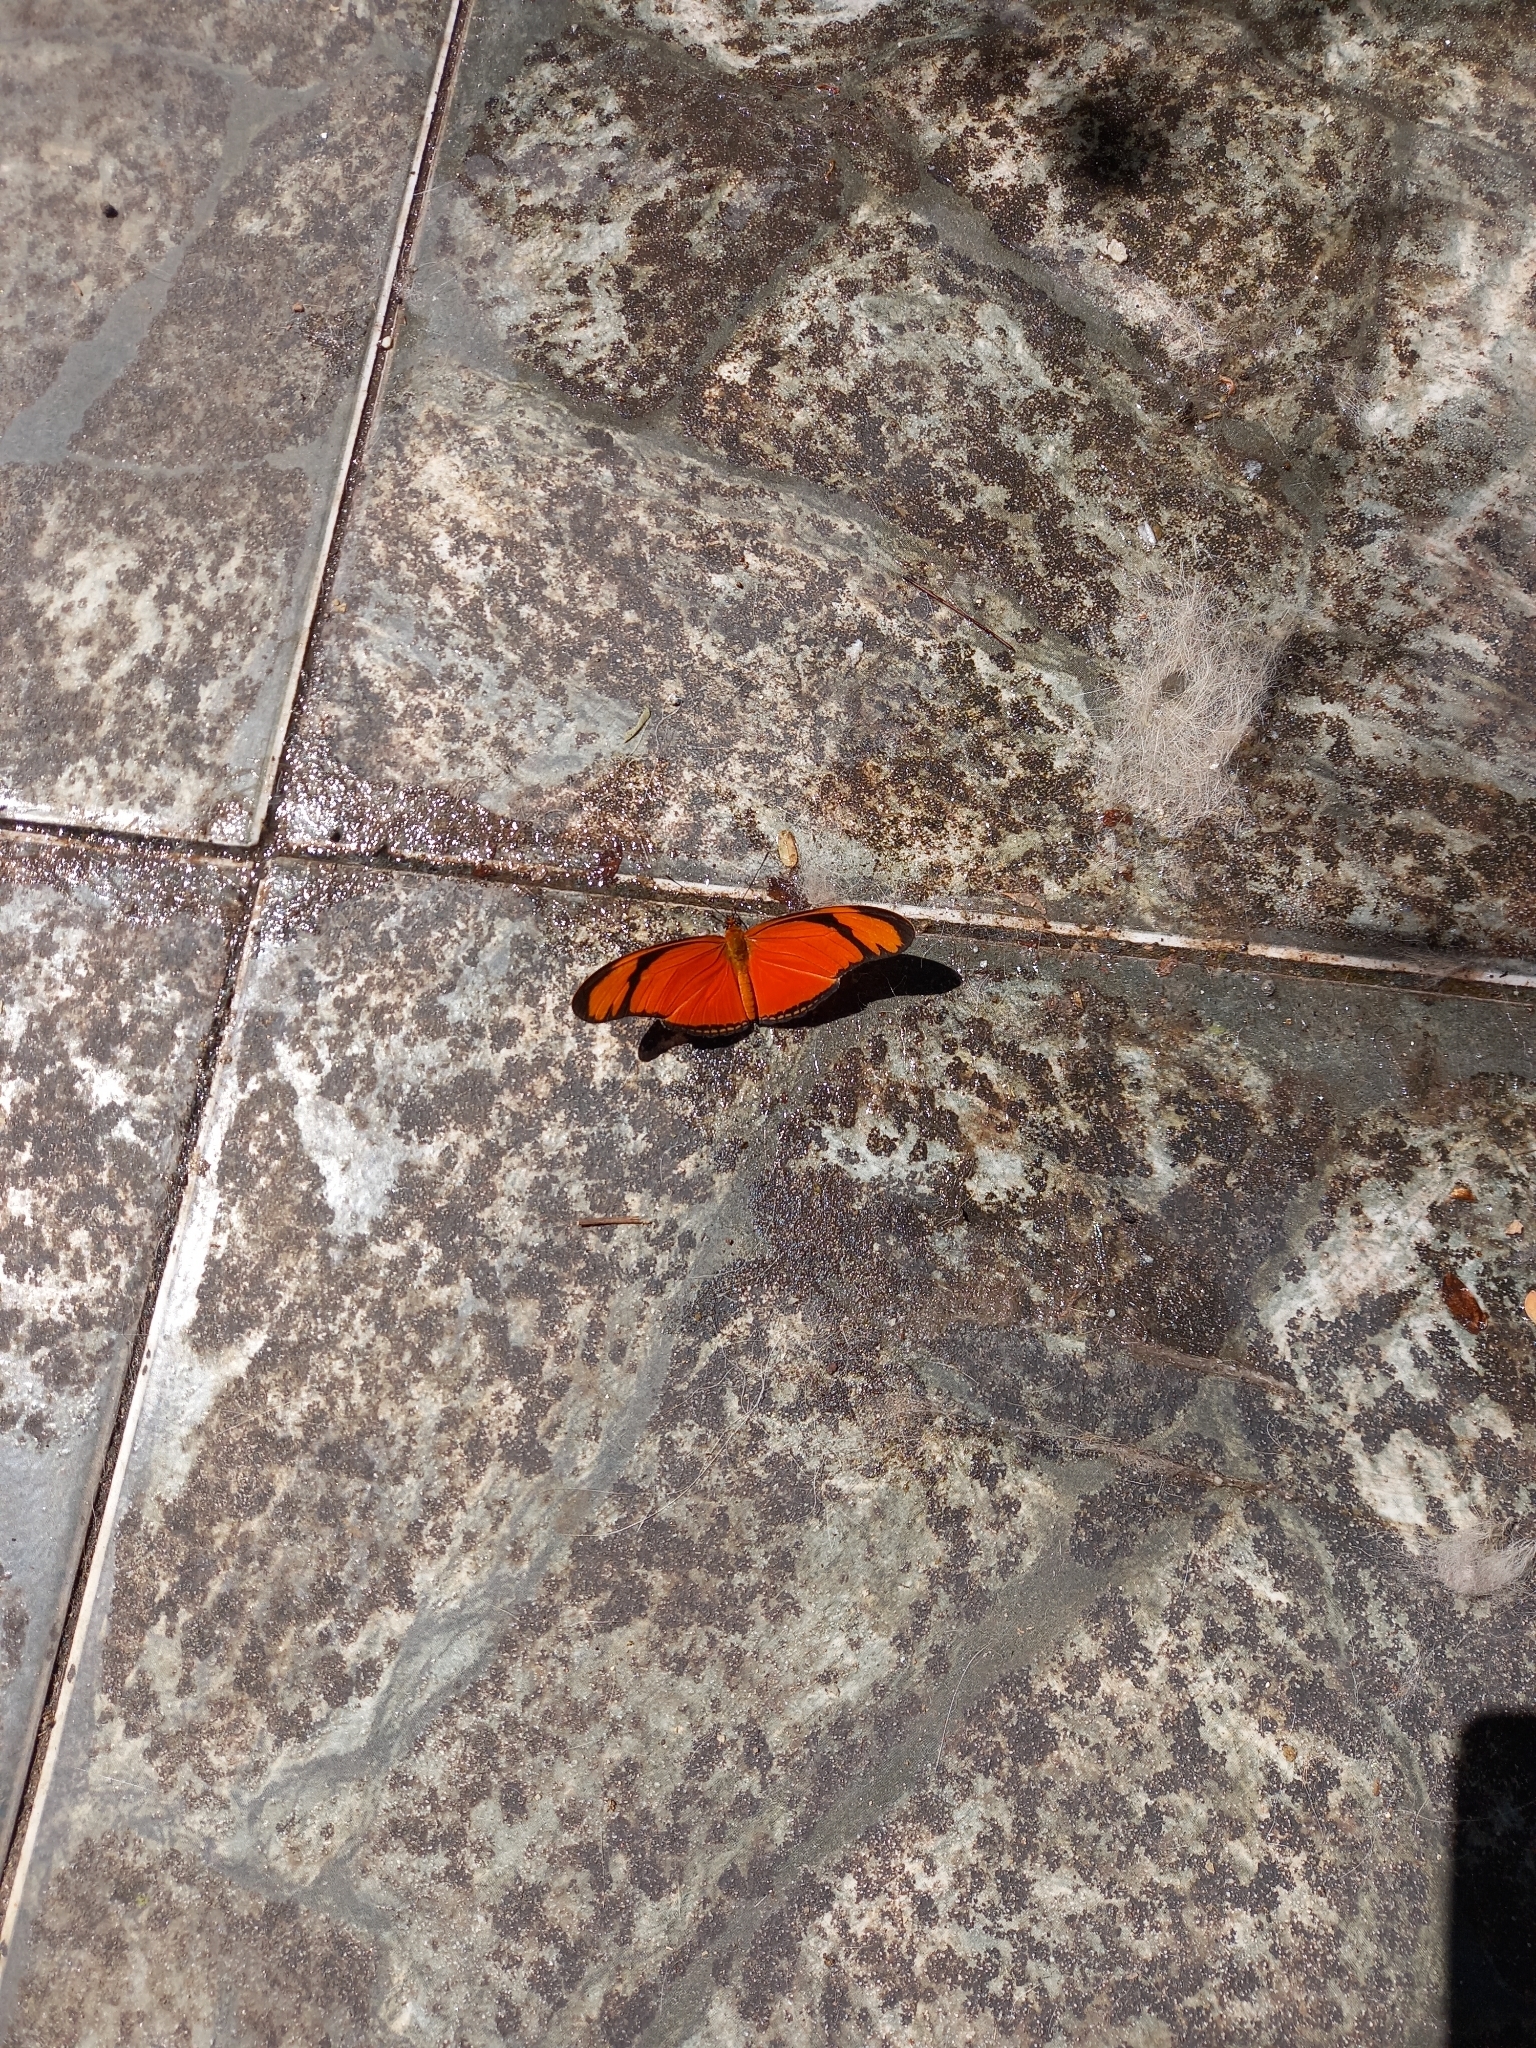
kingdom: Animalia
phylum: Arthropoda
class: Insecta
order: Lepidoptera
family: Nymphalidae
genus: Dryas
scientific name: Dryas iulia
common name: Flambeau
